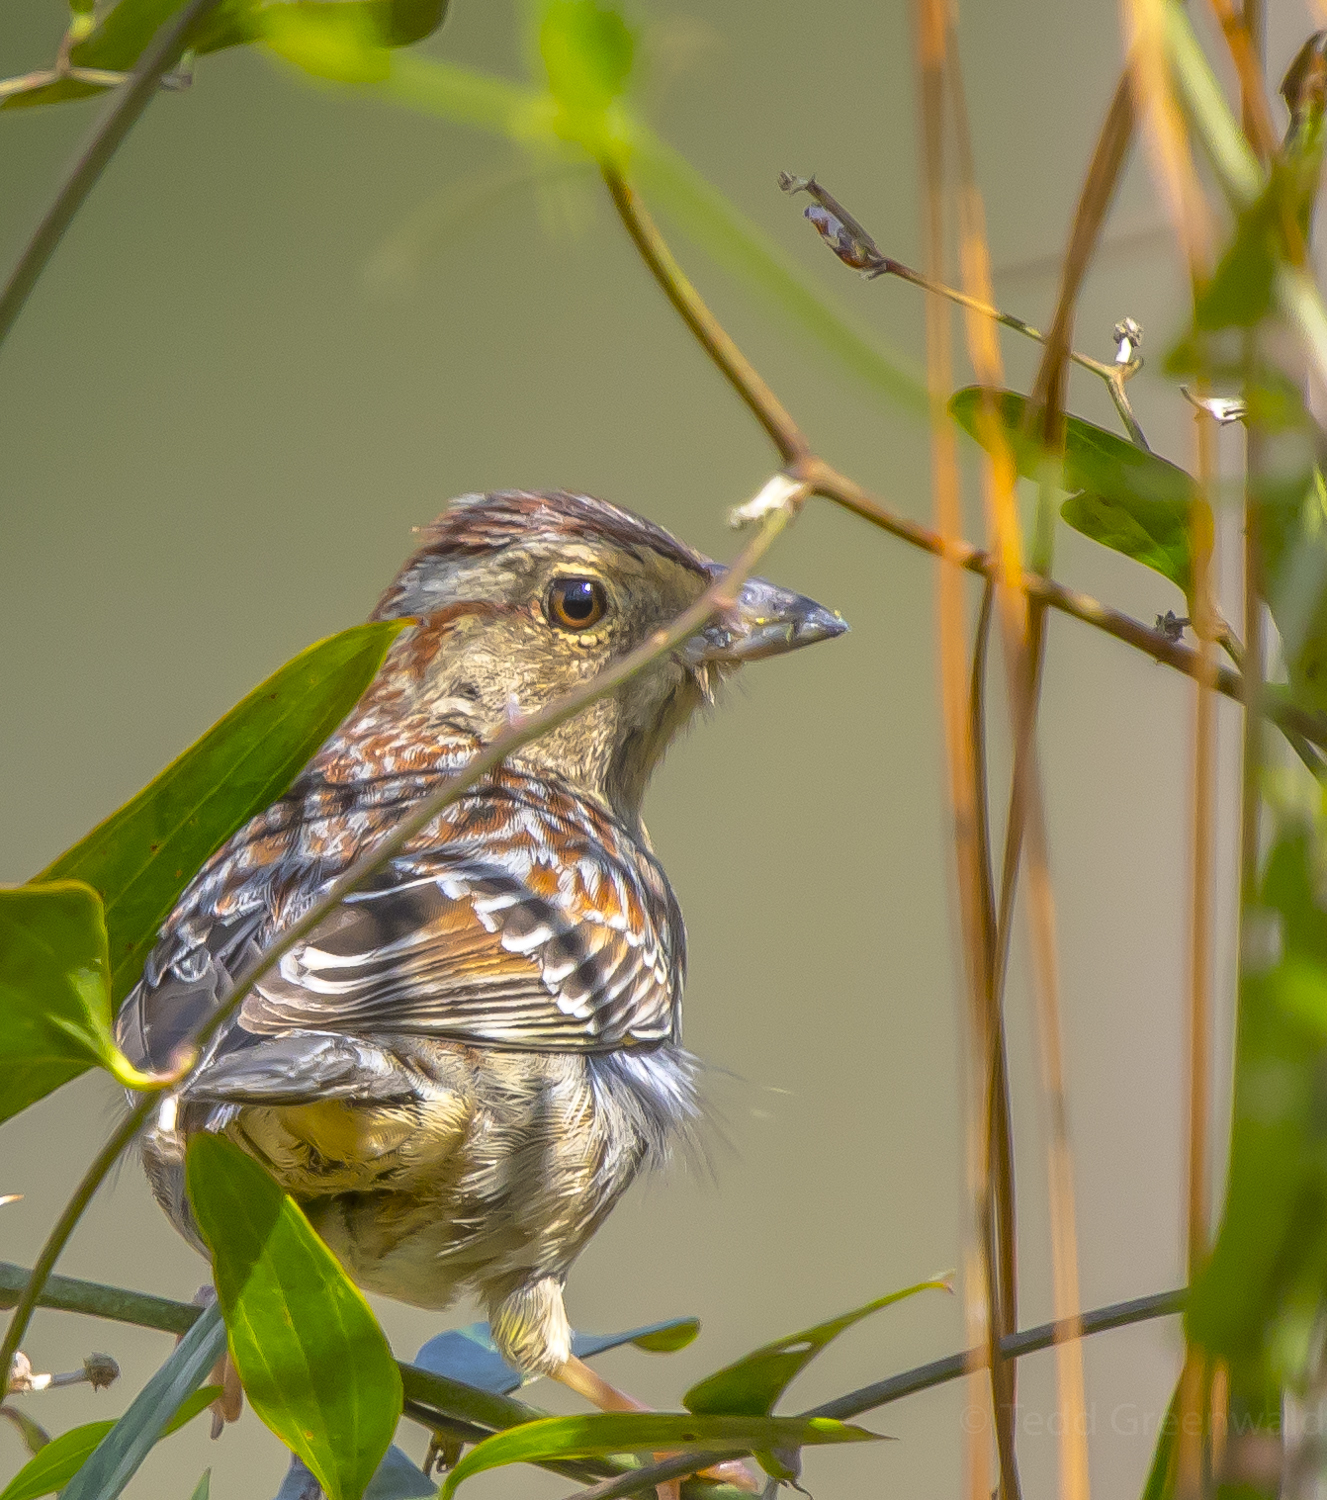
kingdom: Animalia
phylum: Chordata
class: Aves
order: Passeriformes
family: Passerellidae
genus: Peucaea
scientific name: Peucaea aestivalis
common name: Bachman's sparrow
